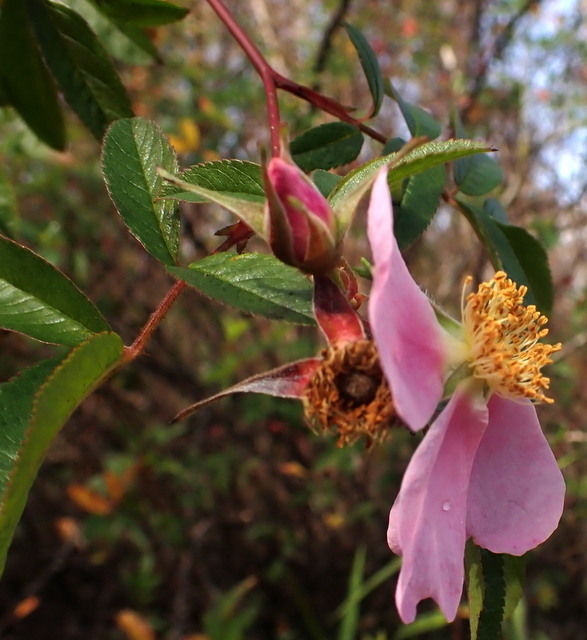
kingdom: Plantae
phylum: Tracheophyta
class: Magnoliopsida
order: Rosales
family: Rosaceae
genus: Rosa
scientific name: Rosa palustris
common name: Swamp rose
